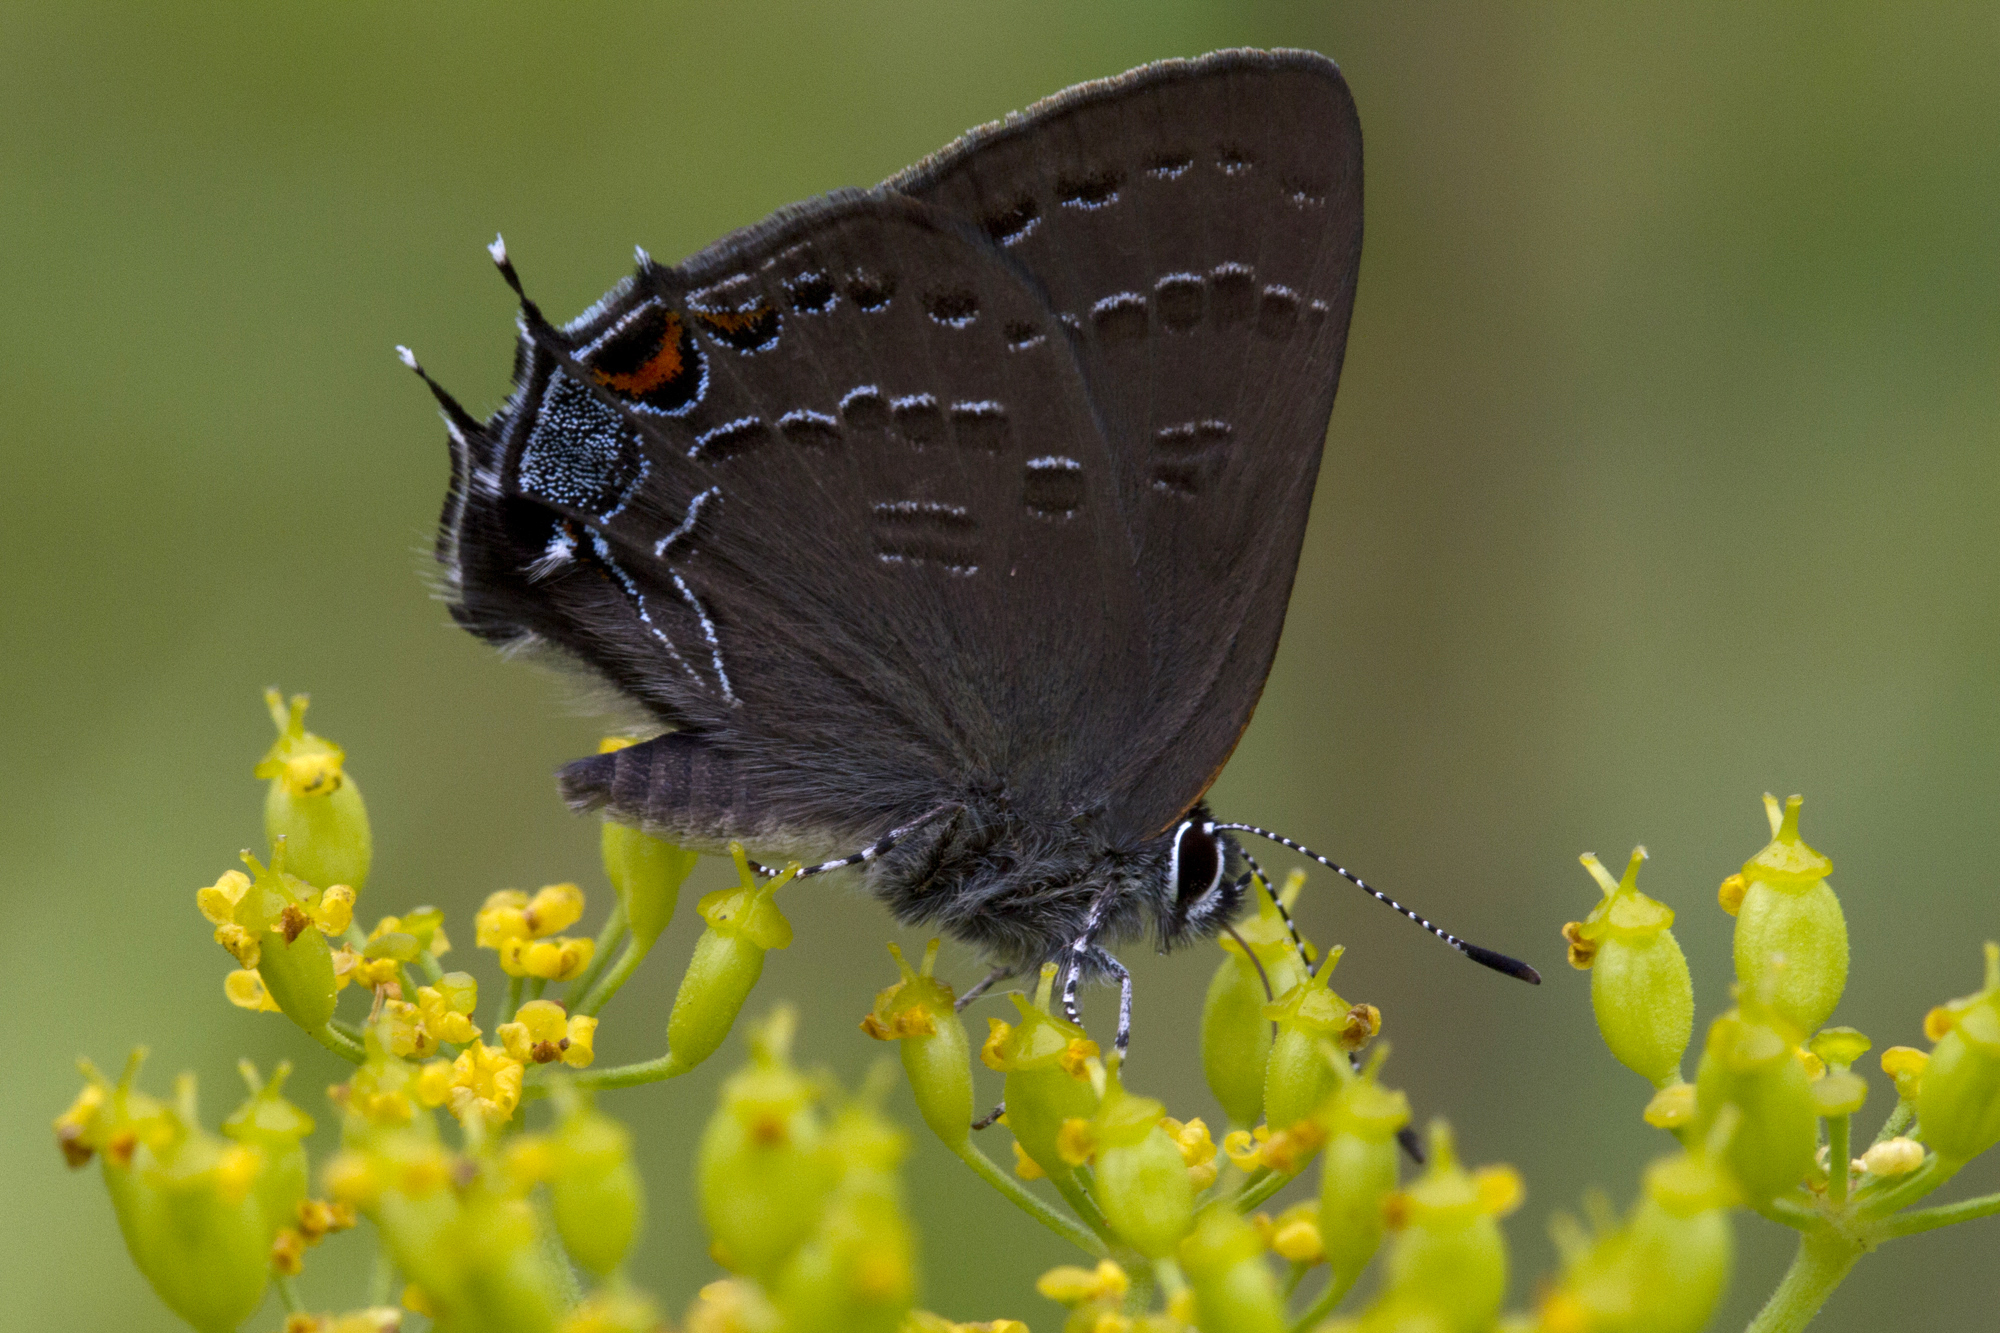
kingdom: Animalia
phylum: Arthropoda
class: Insecta
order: Lepidoptera
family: Lycaenidae
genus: Satyrium
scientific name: Satyrium calanus
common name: Banded hairstreak
